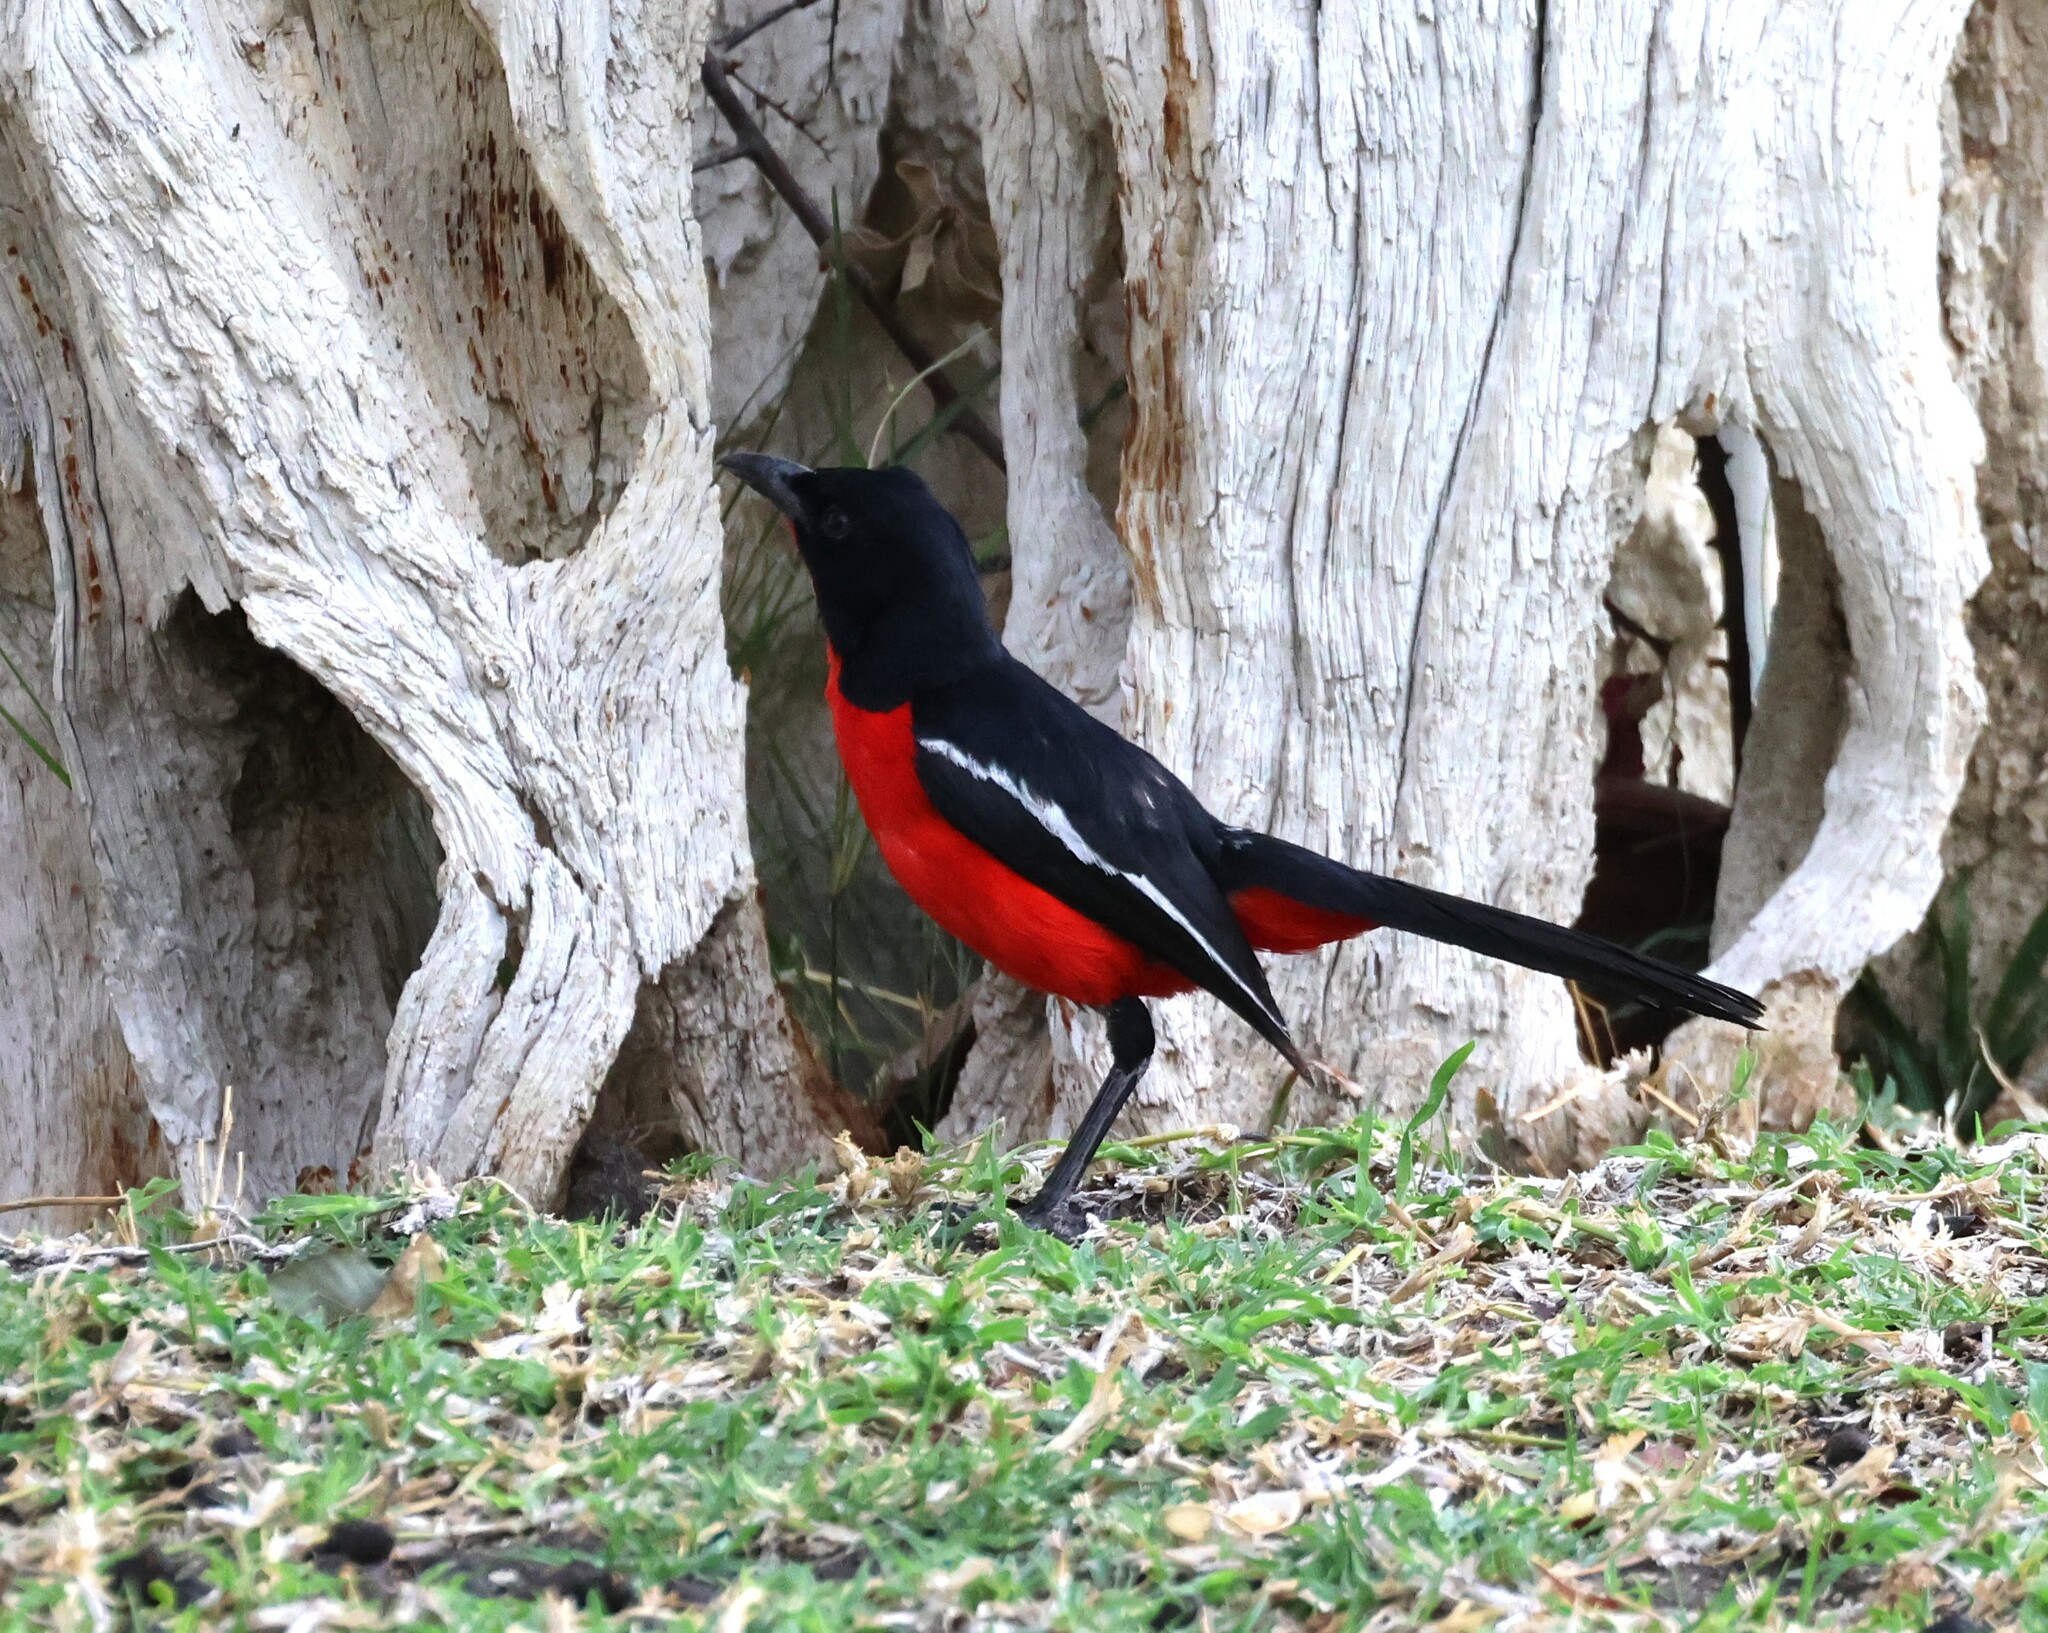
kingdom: Animalia
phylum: Chordata
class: Aves
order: Passeriformes
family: Malaconotidae
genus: Laniarius
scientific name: Laniarius atrococcineus
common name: Crimson-breasted shrike
